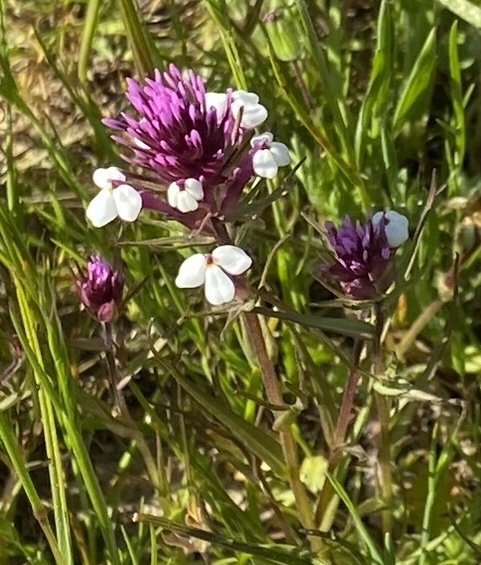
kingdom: Plantae
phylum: Tracheophyta
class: Magnoliopsida
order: Lamiales
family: Orobanchaceae
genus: Triphysaria
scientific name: Triphysaria eriantha
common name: Johnny-tuck
